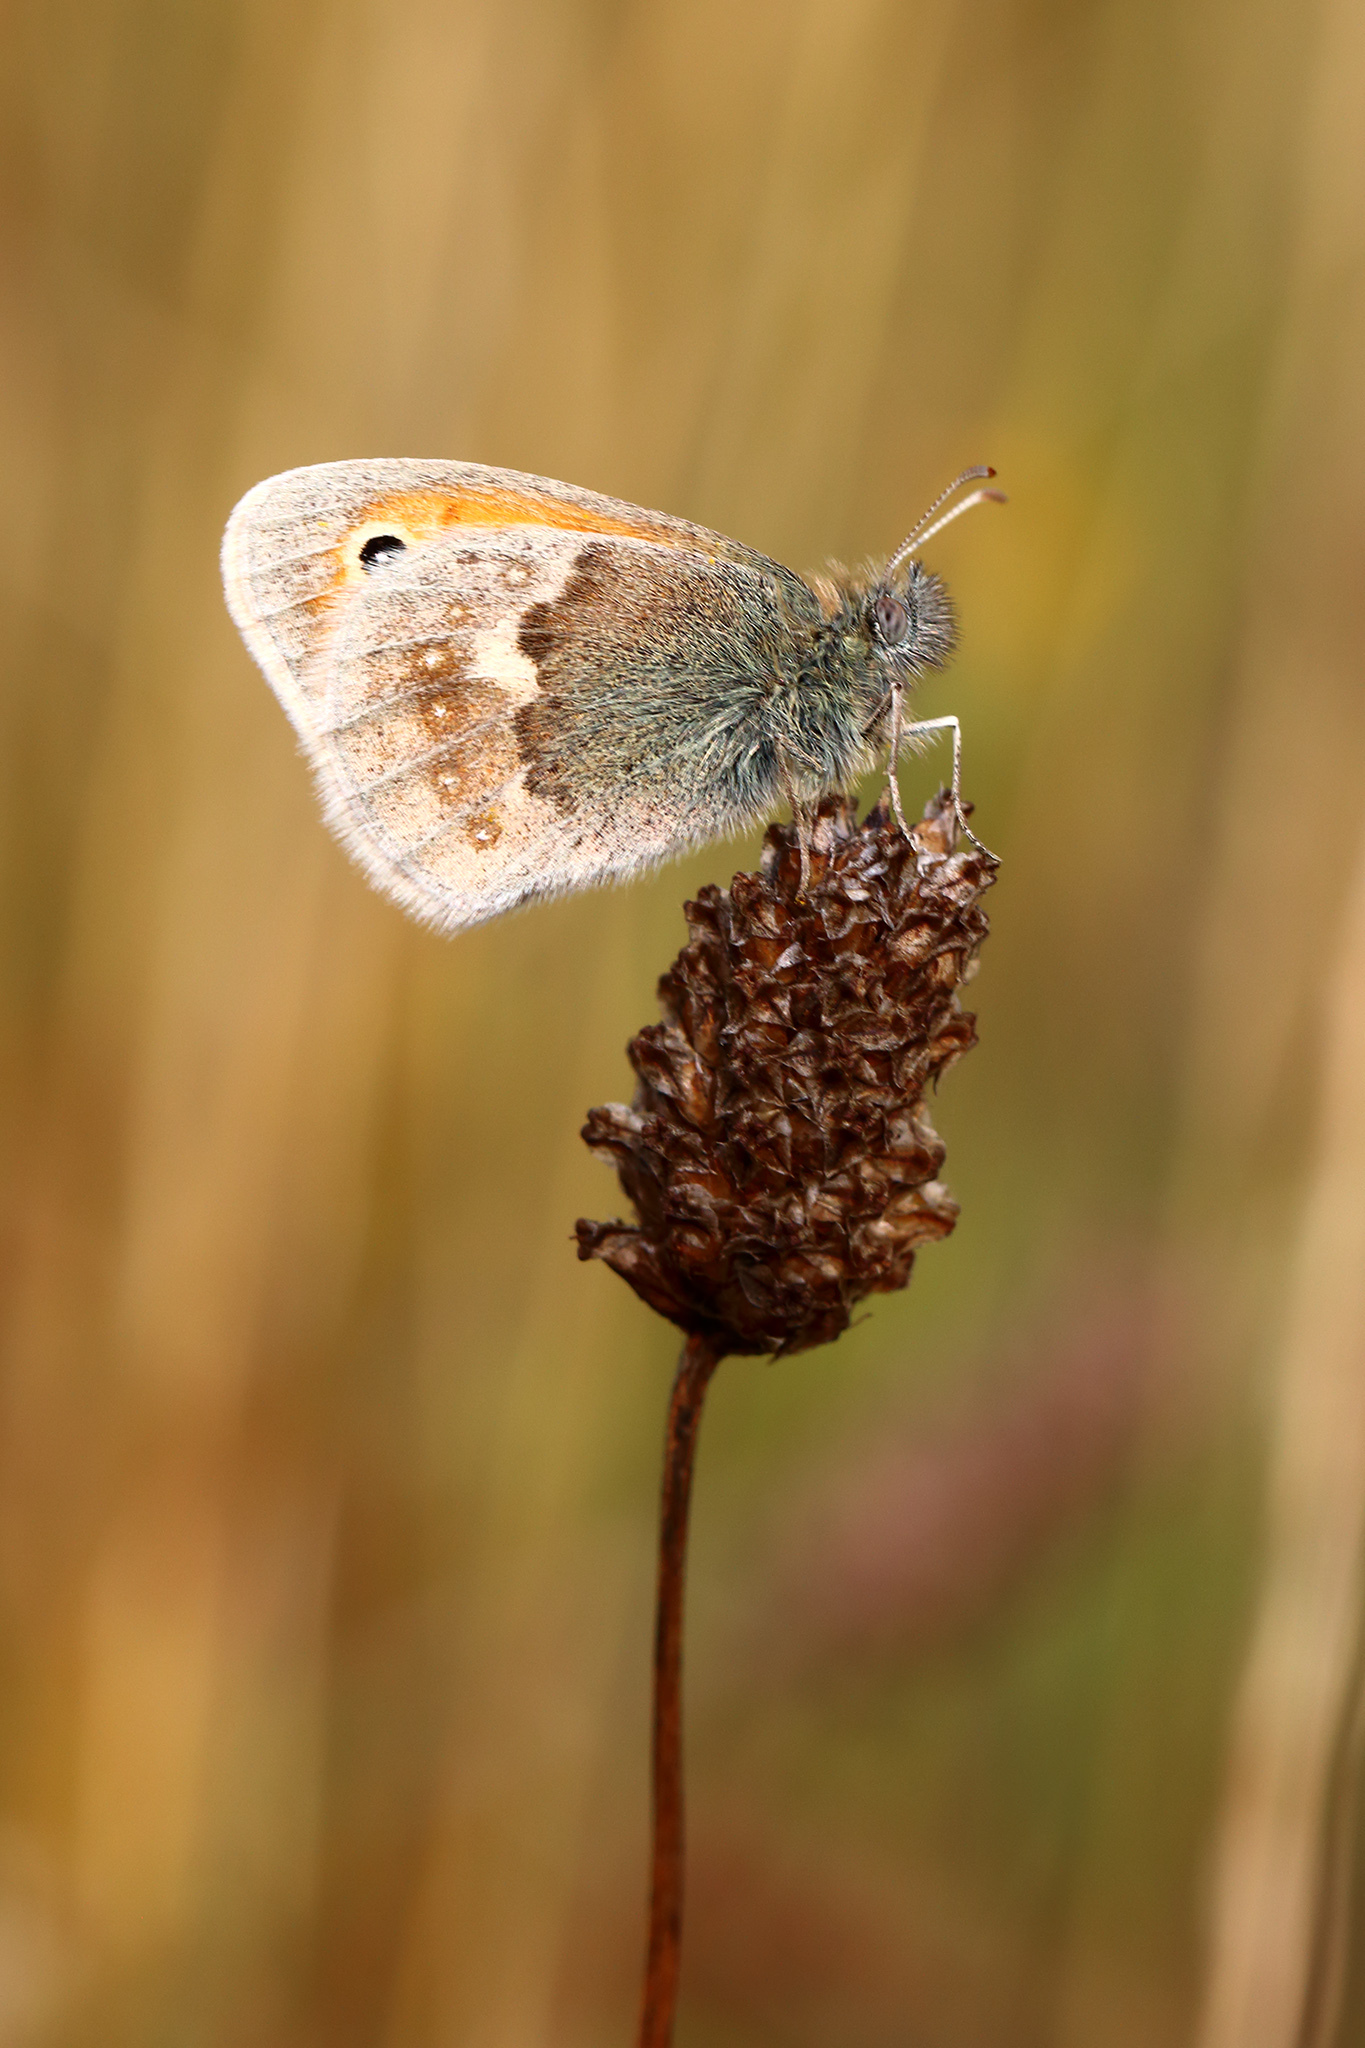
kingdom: Animalia
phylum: Arthropoda
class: Insecta
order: Lepidoptera
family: Nymphalidae
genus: Coenonympha
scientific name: Coenonympha pamphilus
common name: Small heath
